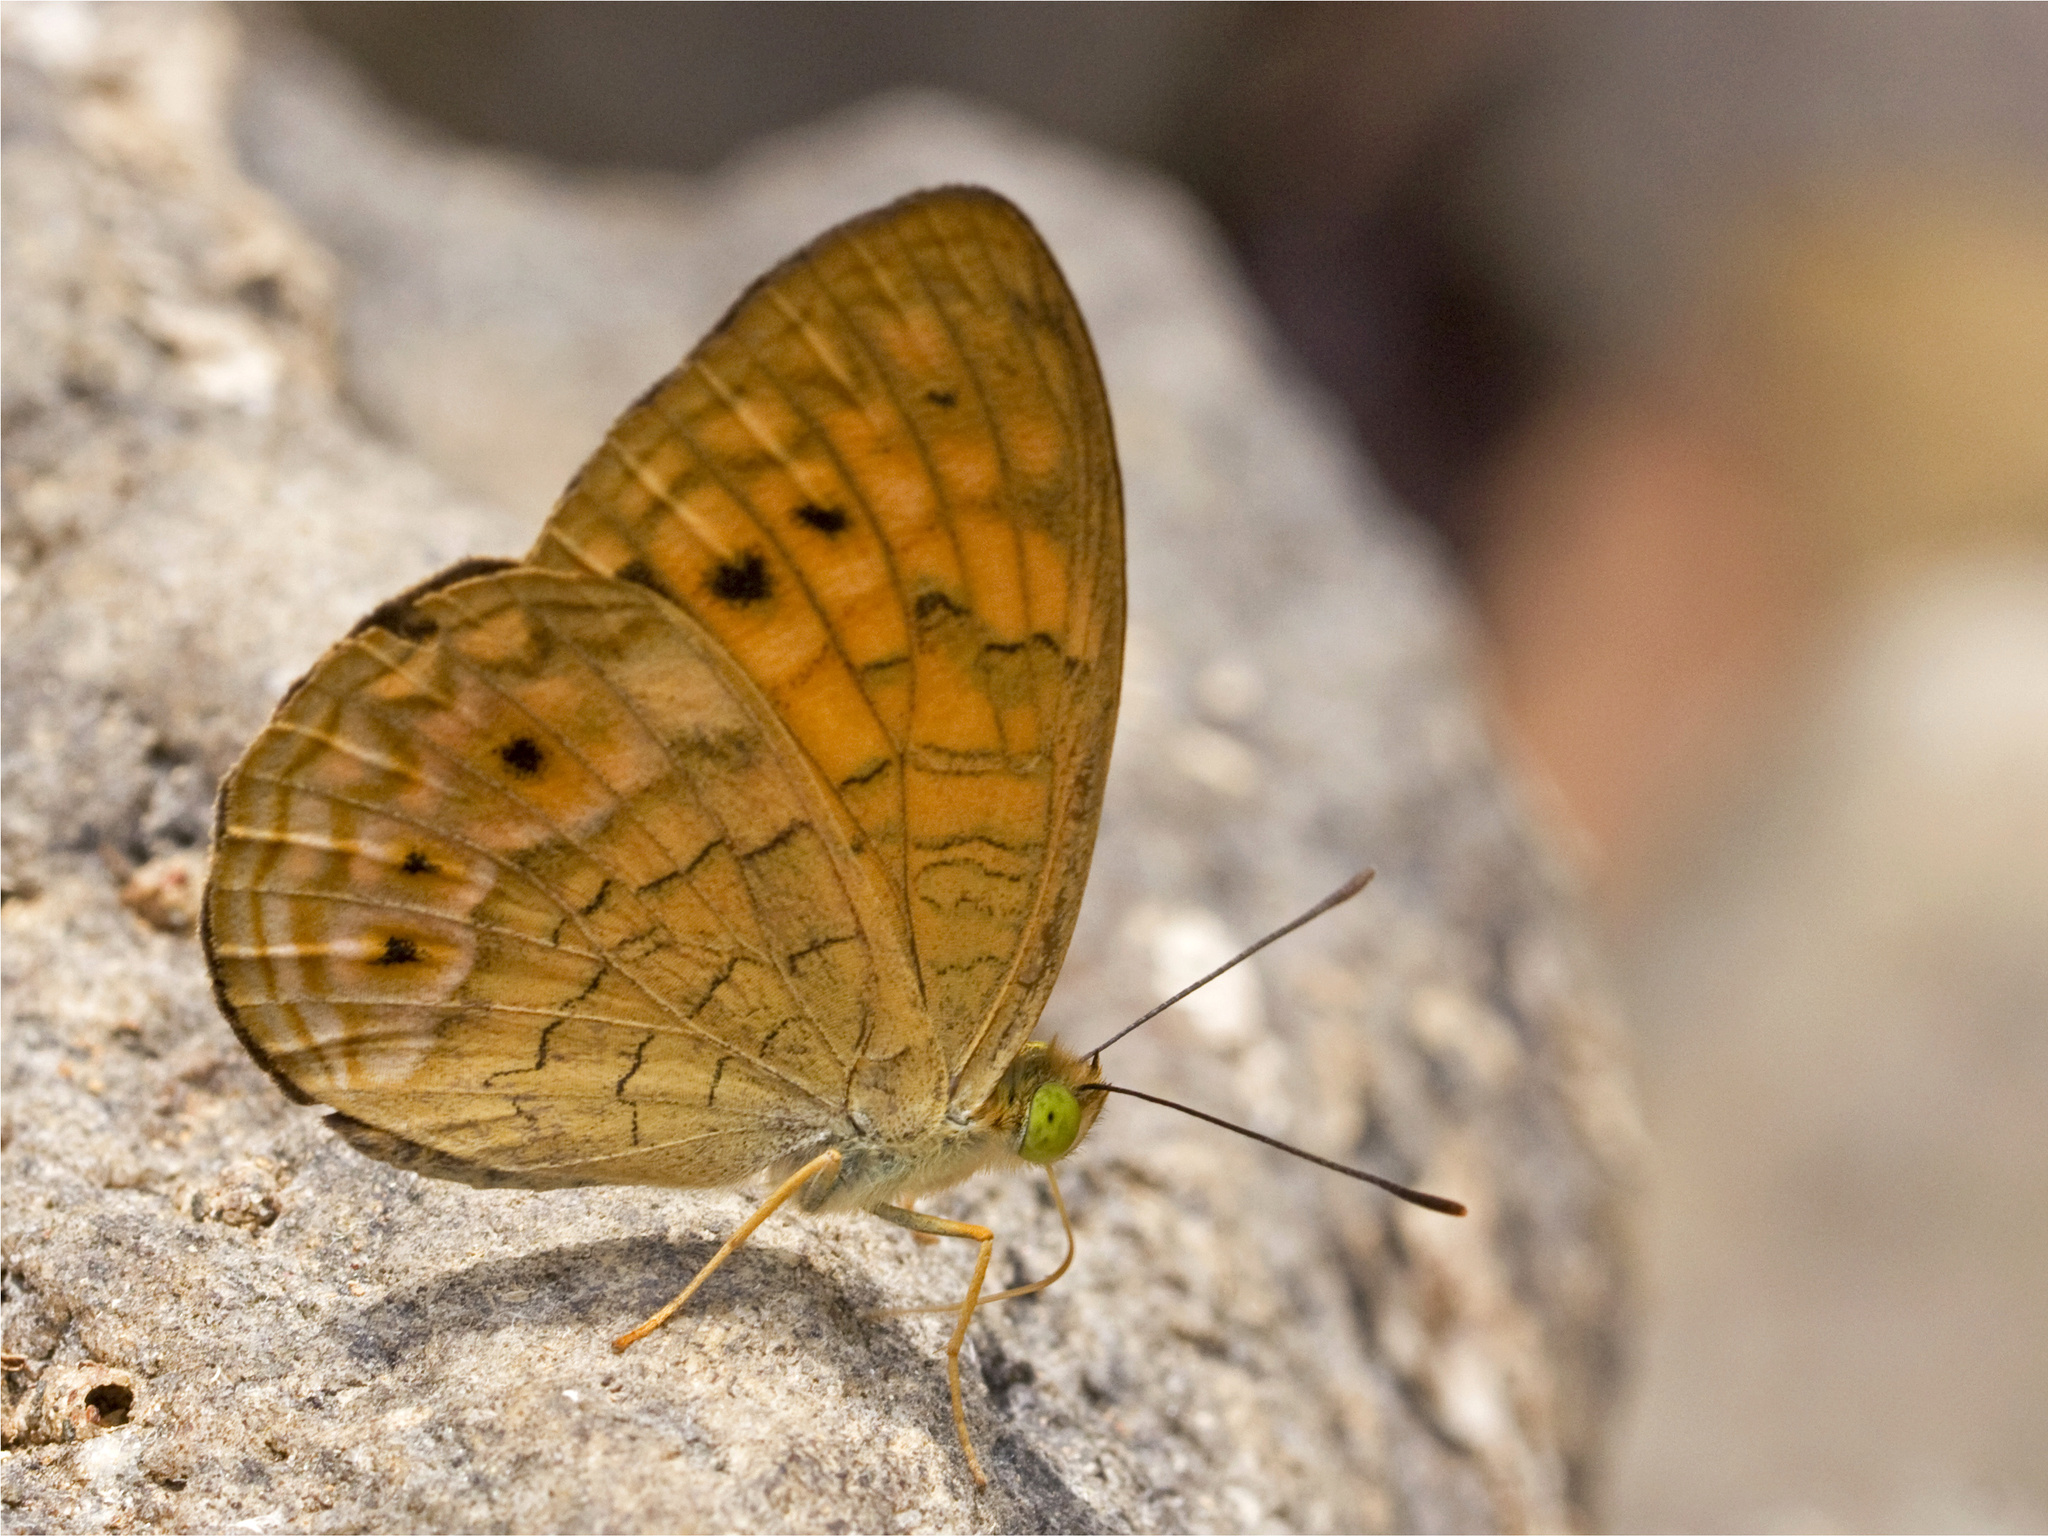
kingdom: Animalia
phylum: Arthropoda
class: Insecta
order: Lepidoptera
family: Nymphalidae
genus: Phalanta
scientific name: Phalanta alcippe
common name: Small leopard
